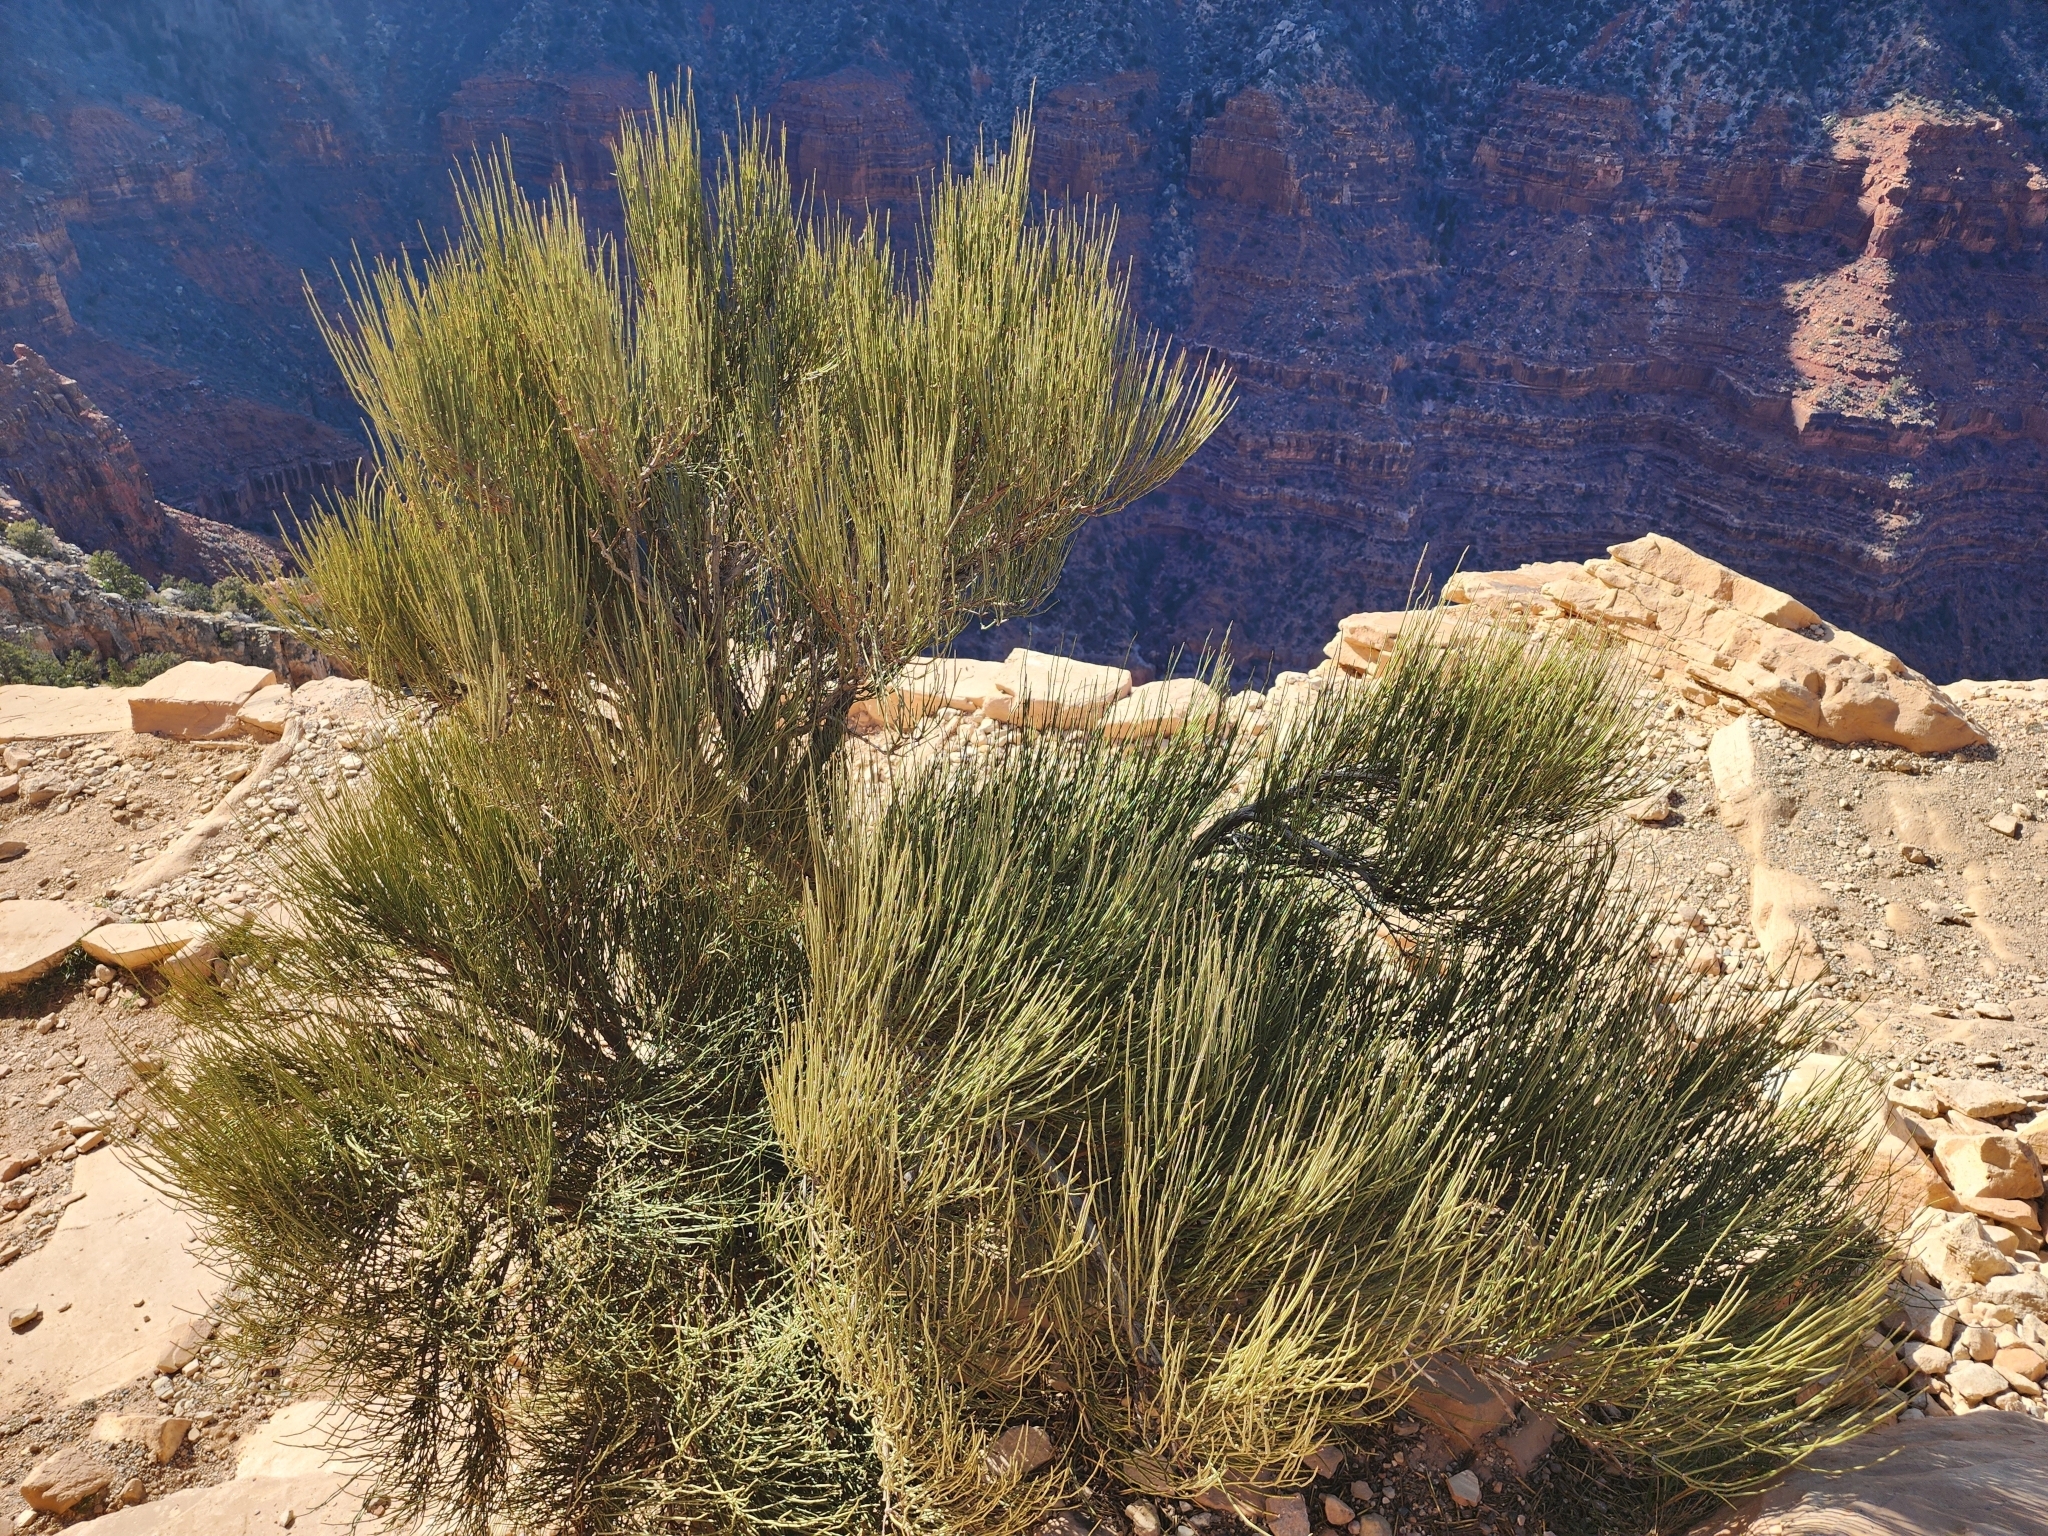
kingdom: Plantae
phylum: Tracheophyta
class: Gnetopsida
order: Ephedrales
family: Ephedraceae
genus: Ephedra
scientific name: Ephedra viridis
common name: Green ephedra
